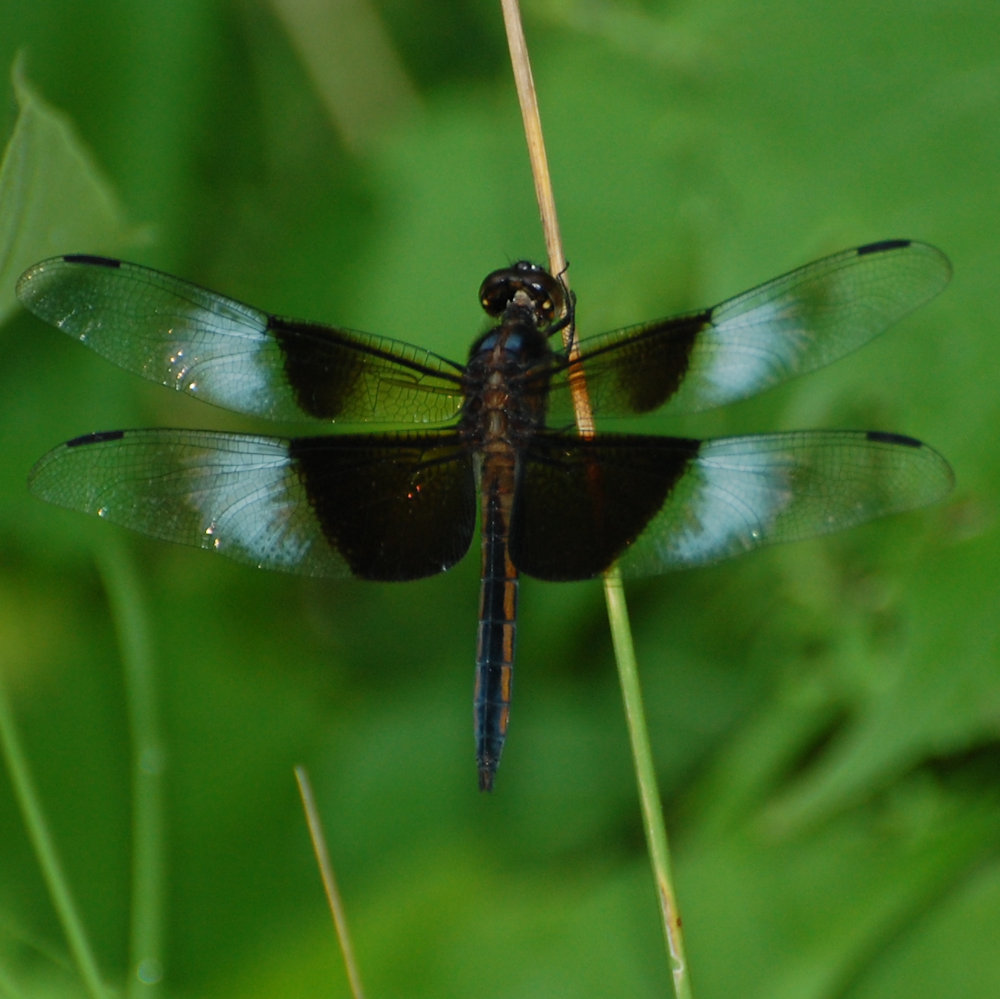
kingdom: Animalia
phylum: Arthropoda
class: Insecta
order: Odonata
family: Libellulidae
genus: Libellula
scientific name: Libellula luctuosa
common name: Widow skimmer
